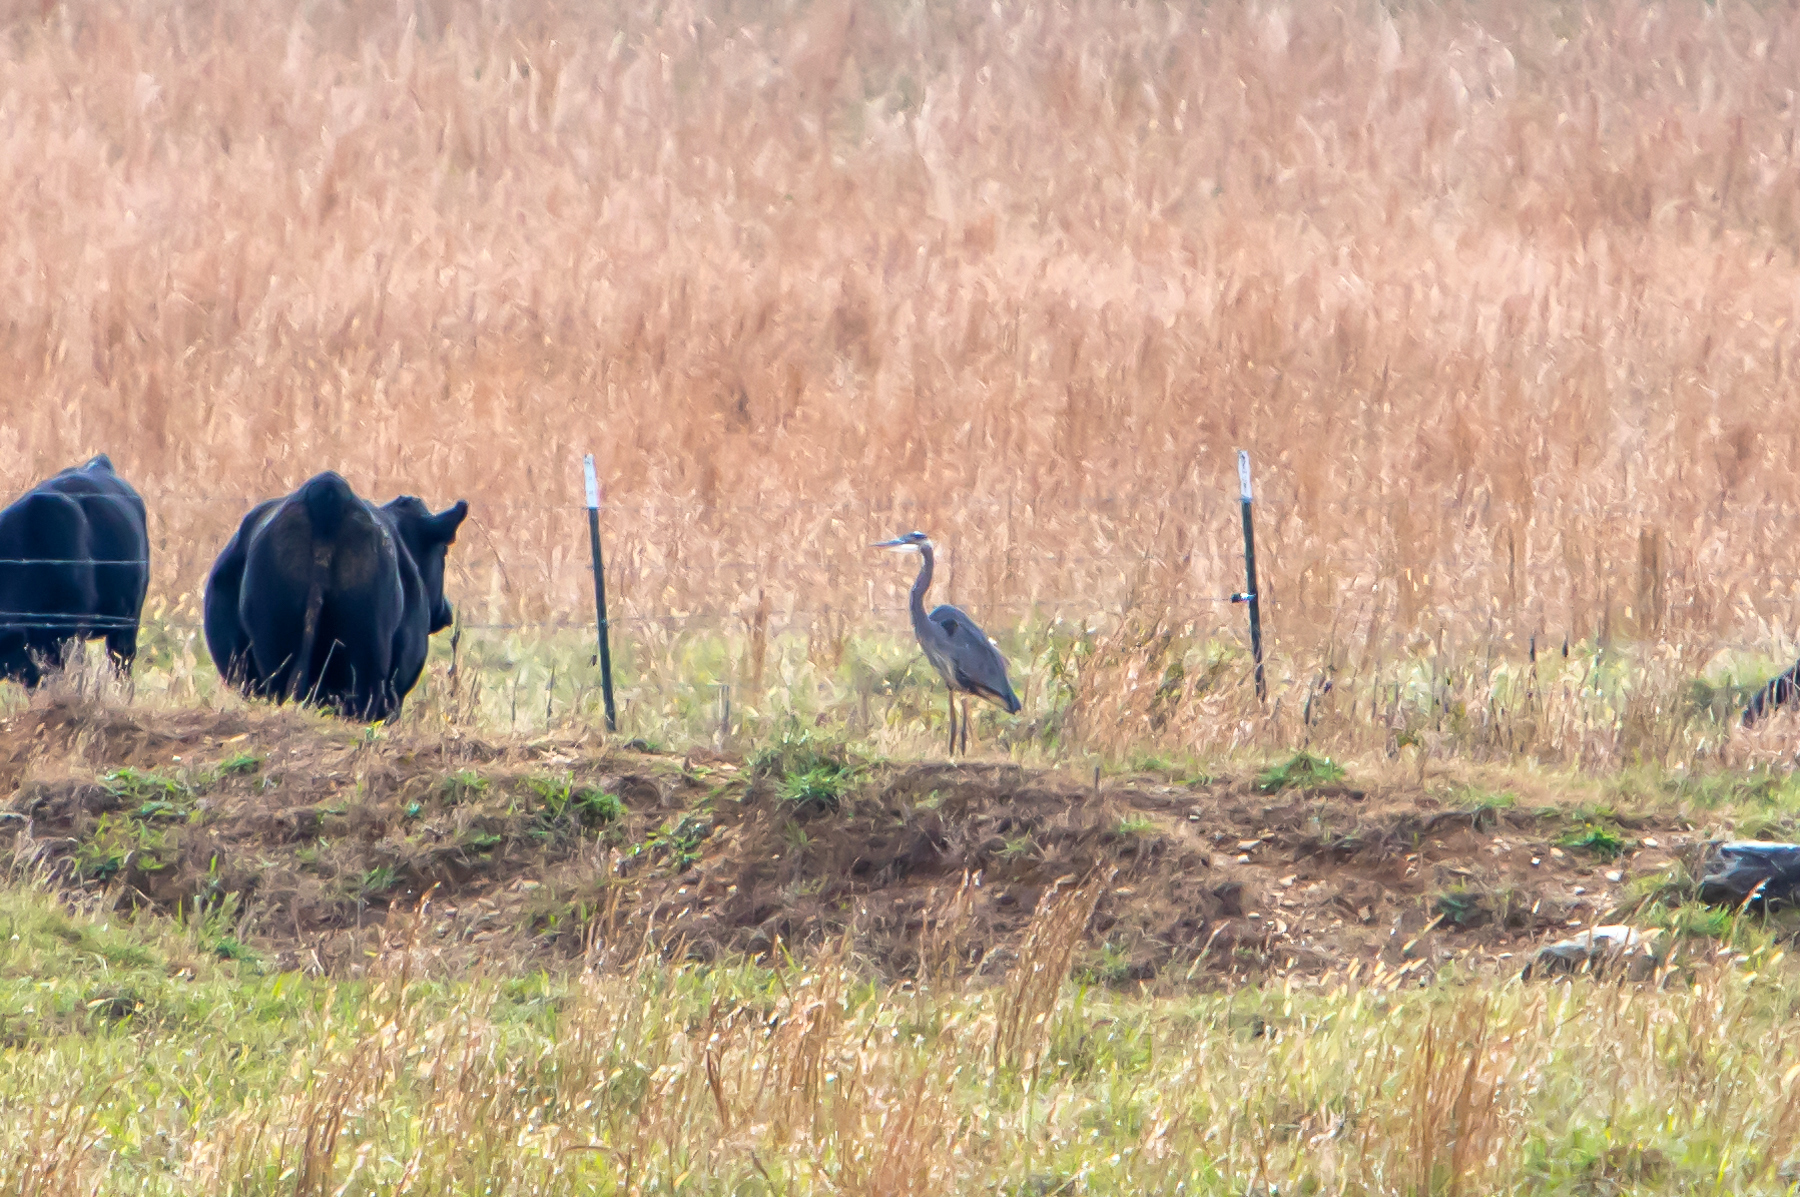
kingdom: Animalia
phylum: Chordata
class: Aves
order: Pelecaniformes
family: Ardeidae
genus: Ardea
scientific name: Ardea herodias
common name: Great blue heron
